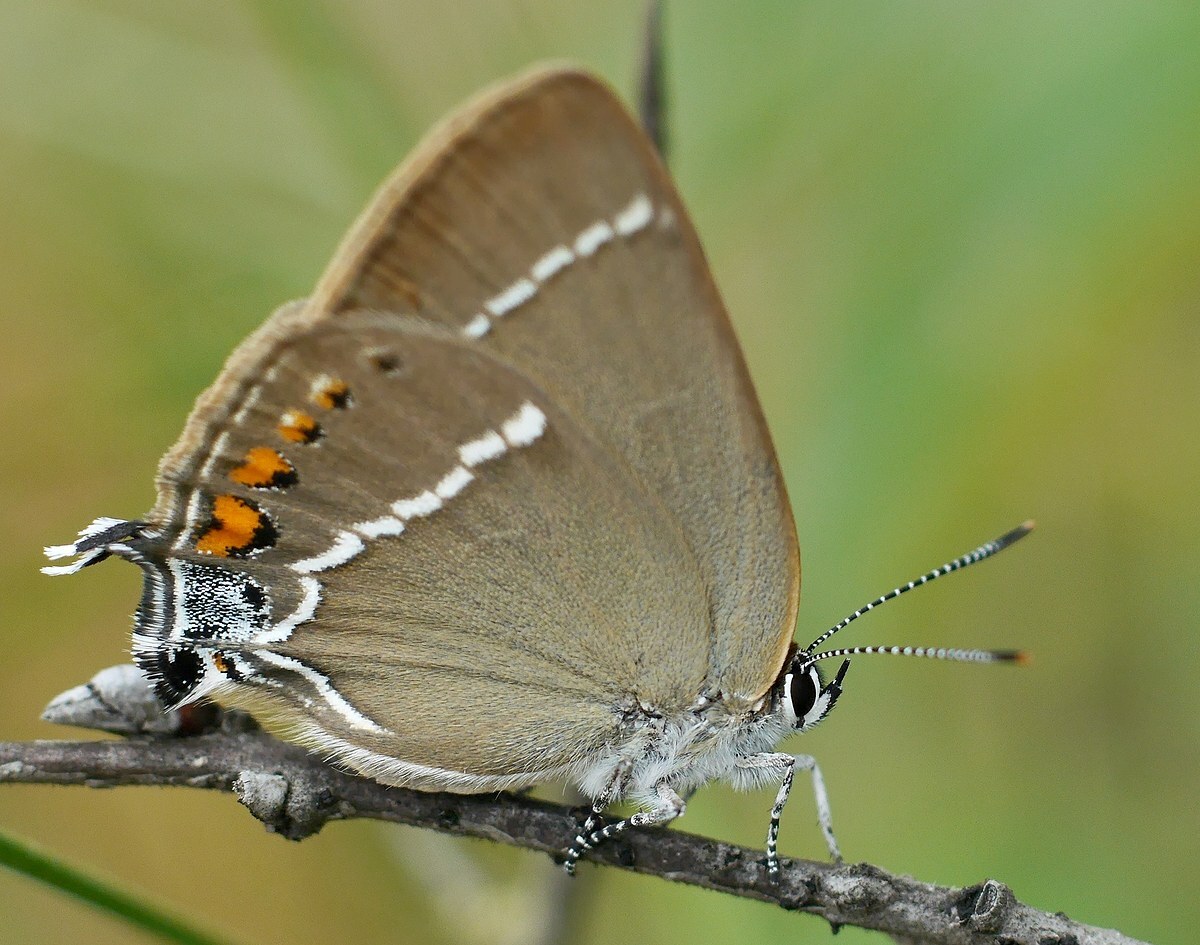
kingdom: Animalia
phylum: Arthropoda
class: Insecta
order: Lepidoptera
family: Lycaenidae
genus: Tuttiola
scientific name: Tuttiola spini
